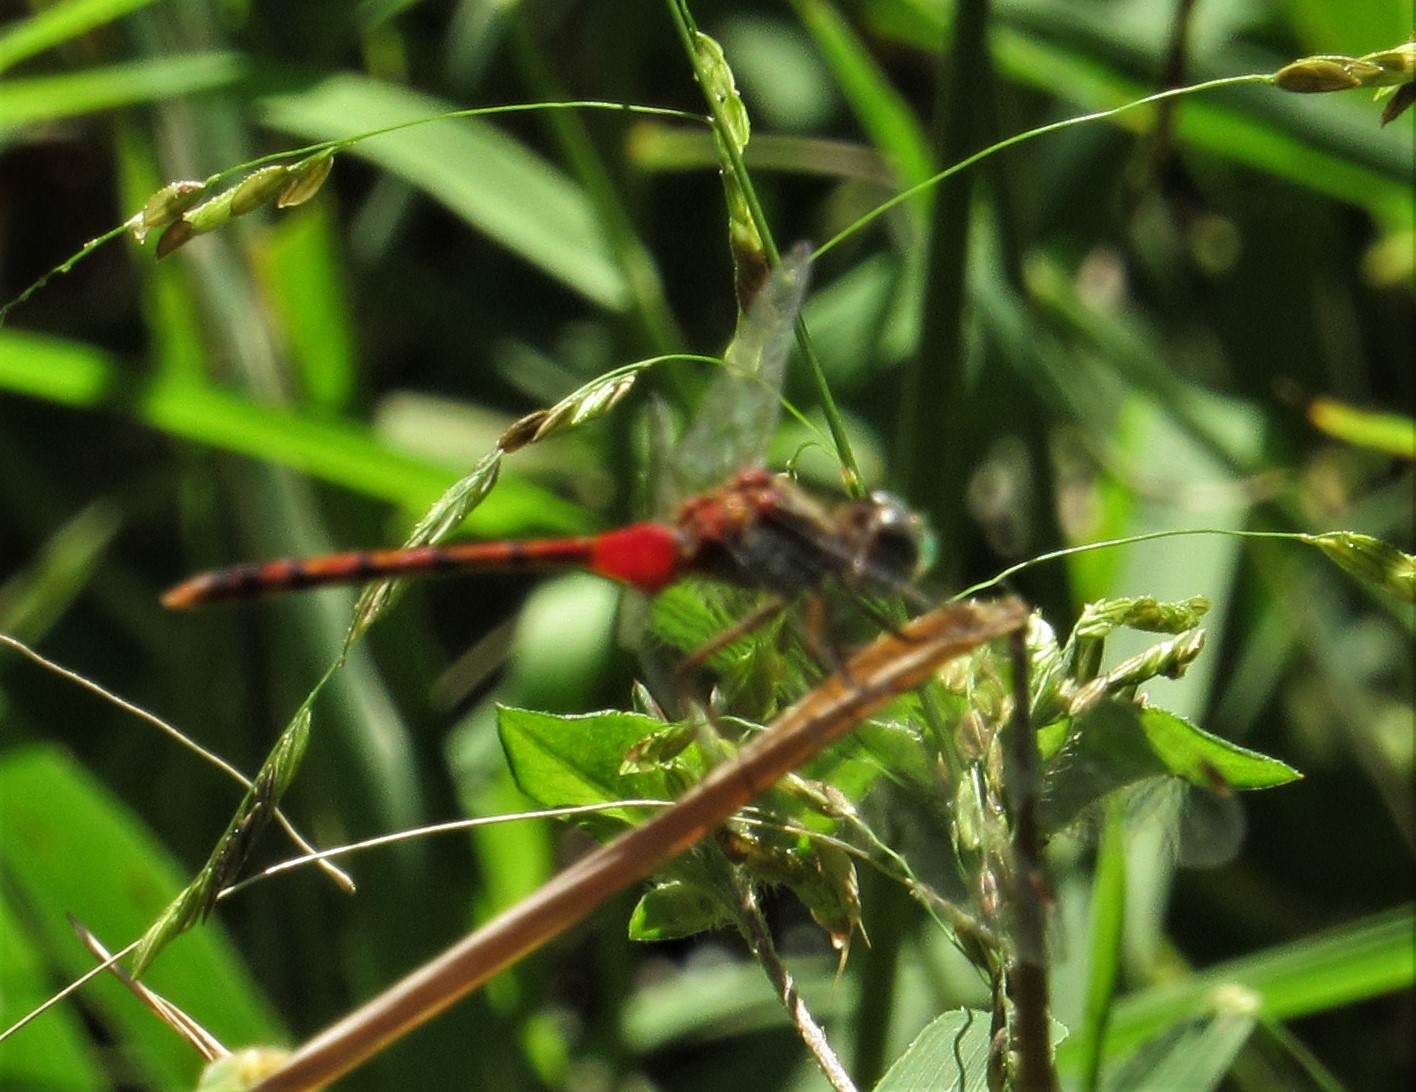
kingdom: Animalia
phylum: Arthropoda
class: Insecta
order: Odonata
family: Libellulidae
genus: Sympetrum
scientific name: Sympetrum ambiguum
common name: Blue-faced meadowhawk
